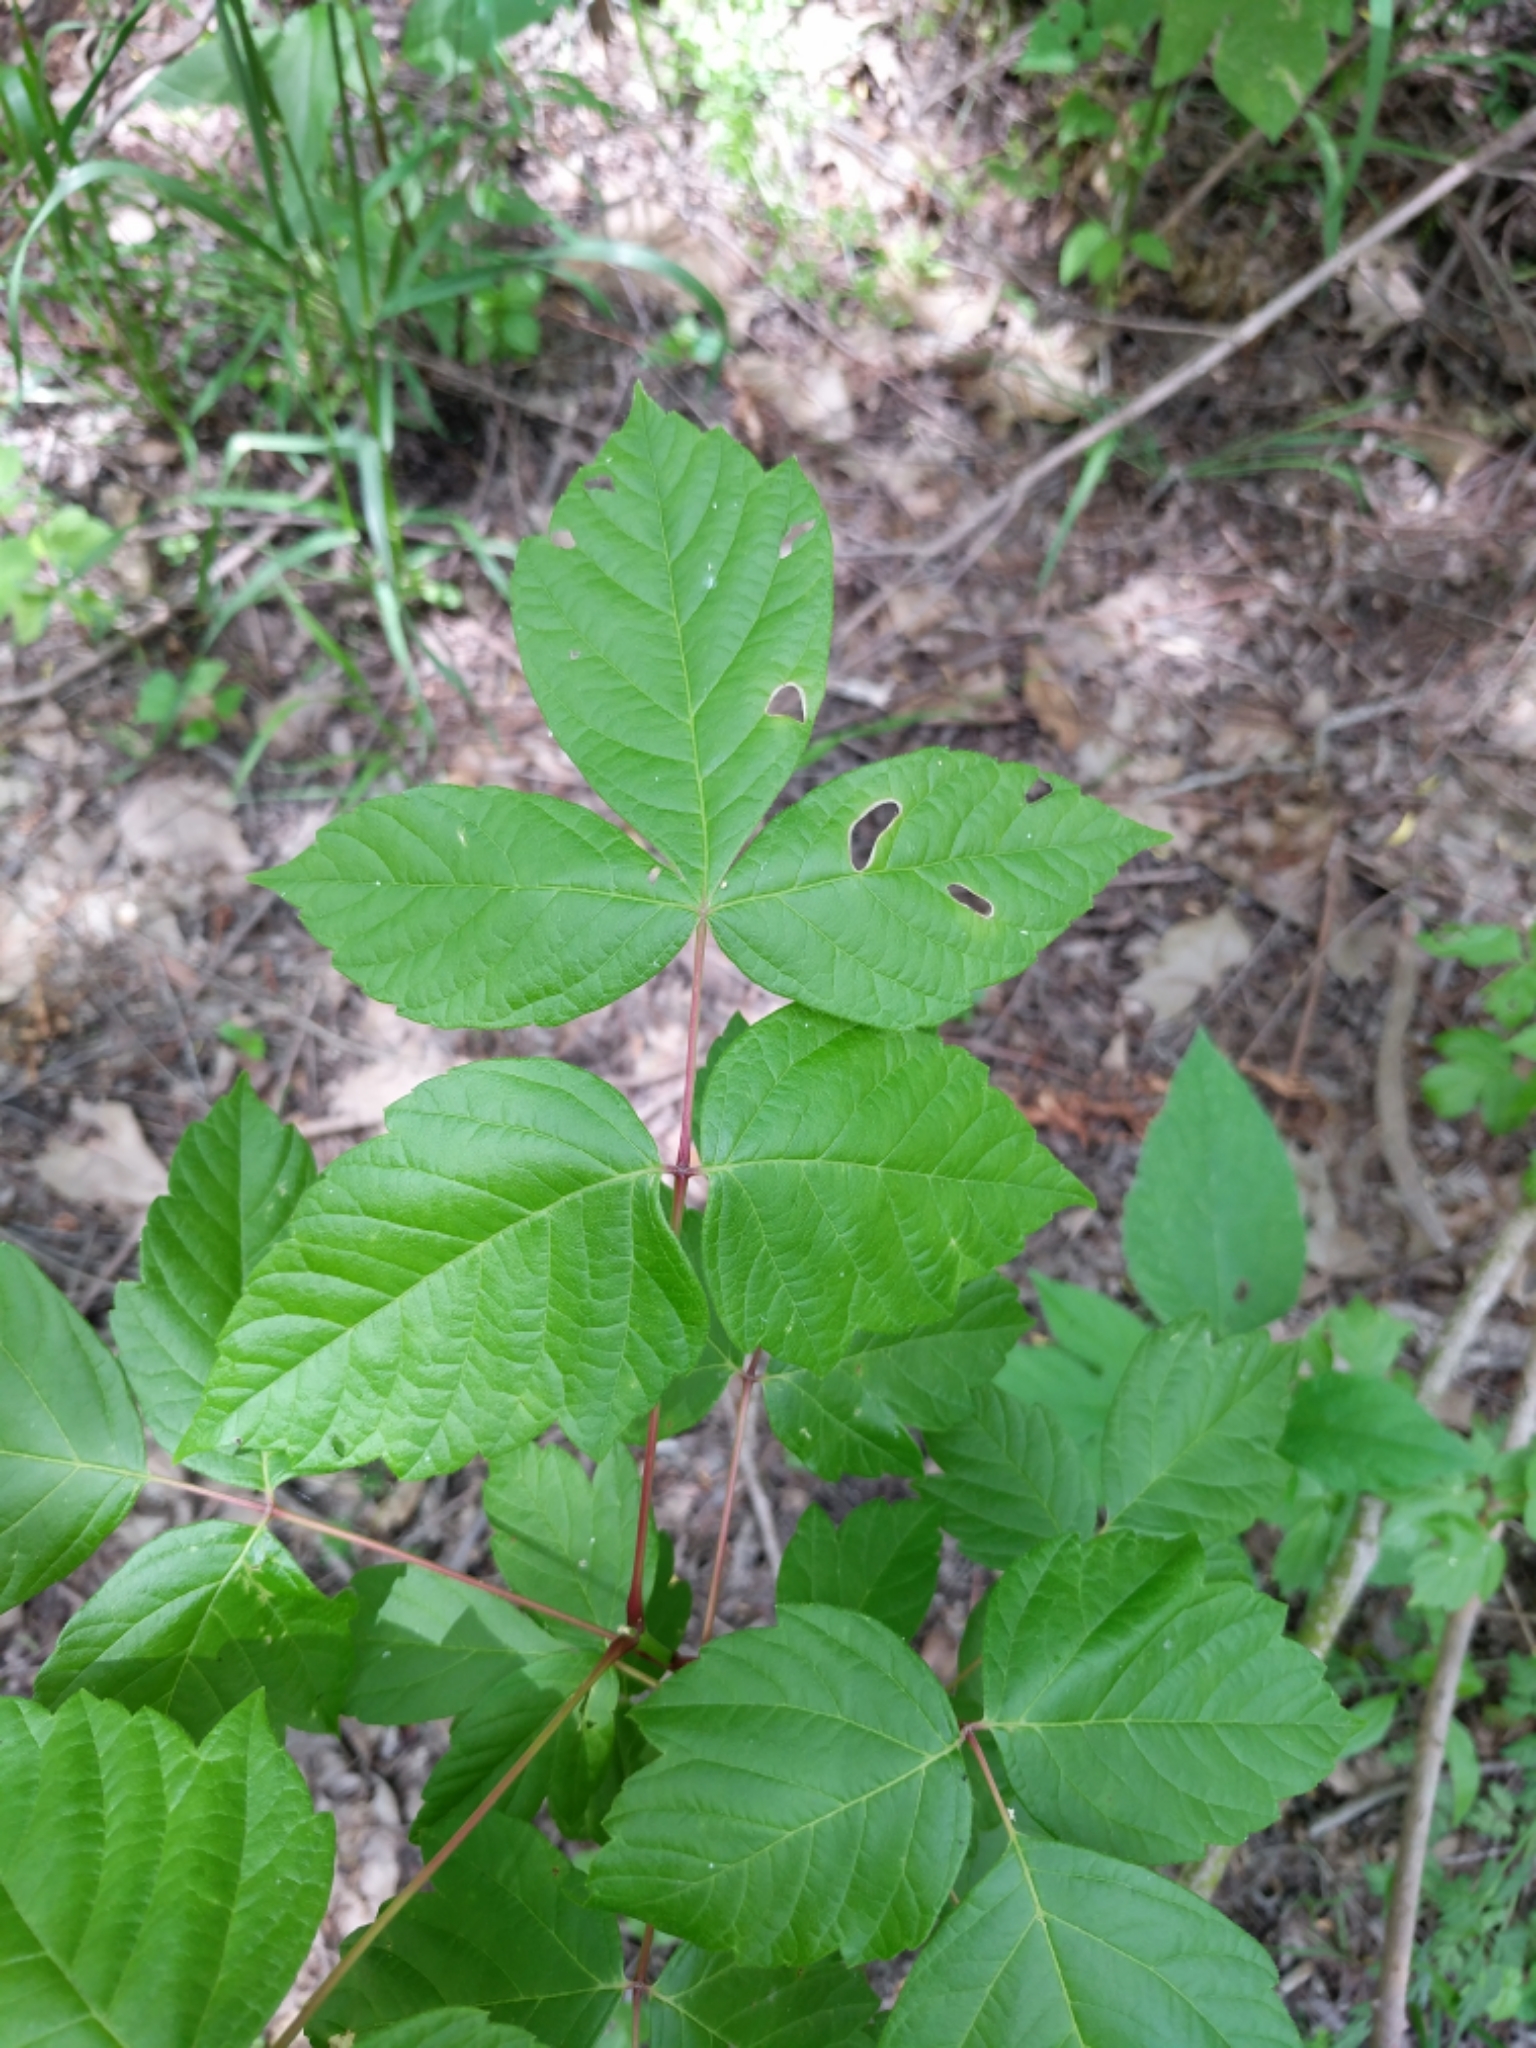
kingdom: Plantae
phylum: Tracheophyta
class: Magnoliopsida
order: Sapindales
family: Sapindaceae
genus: Acer
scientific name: Acer negundo
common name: Ashleaf maple
